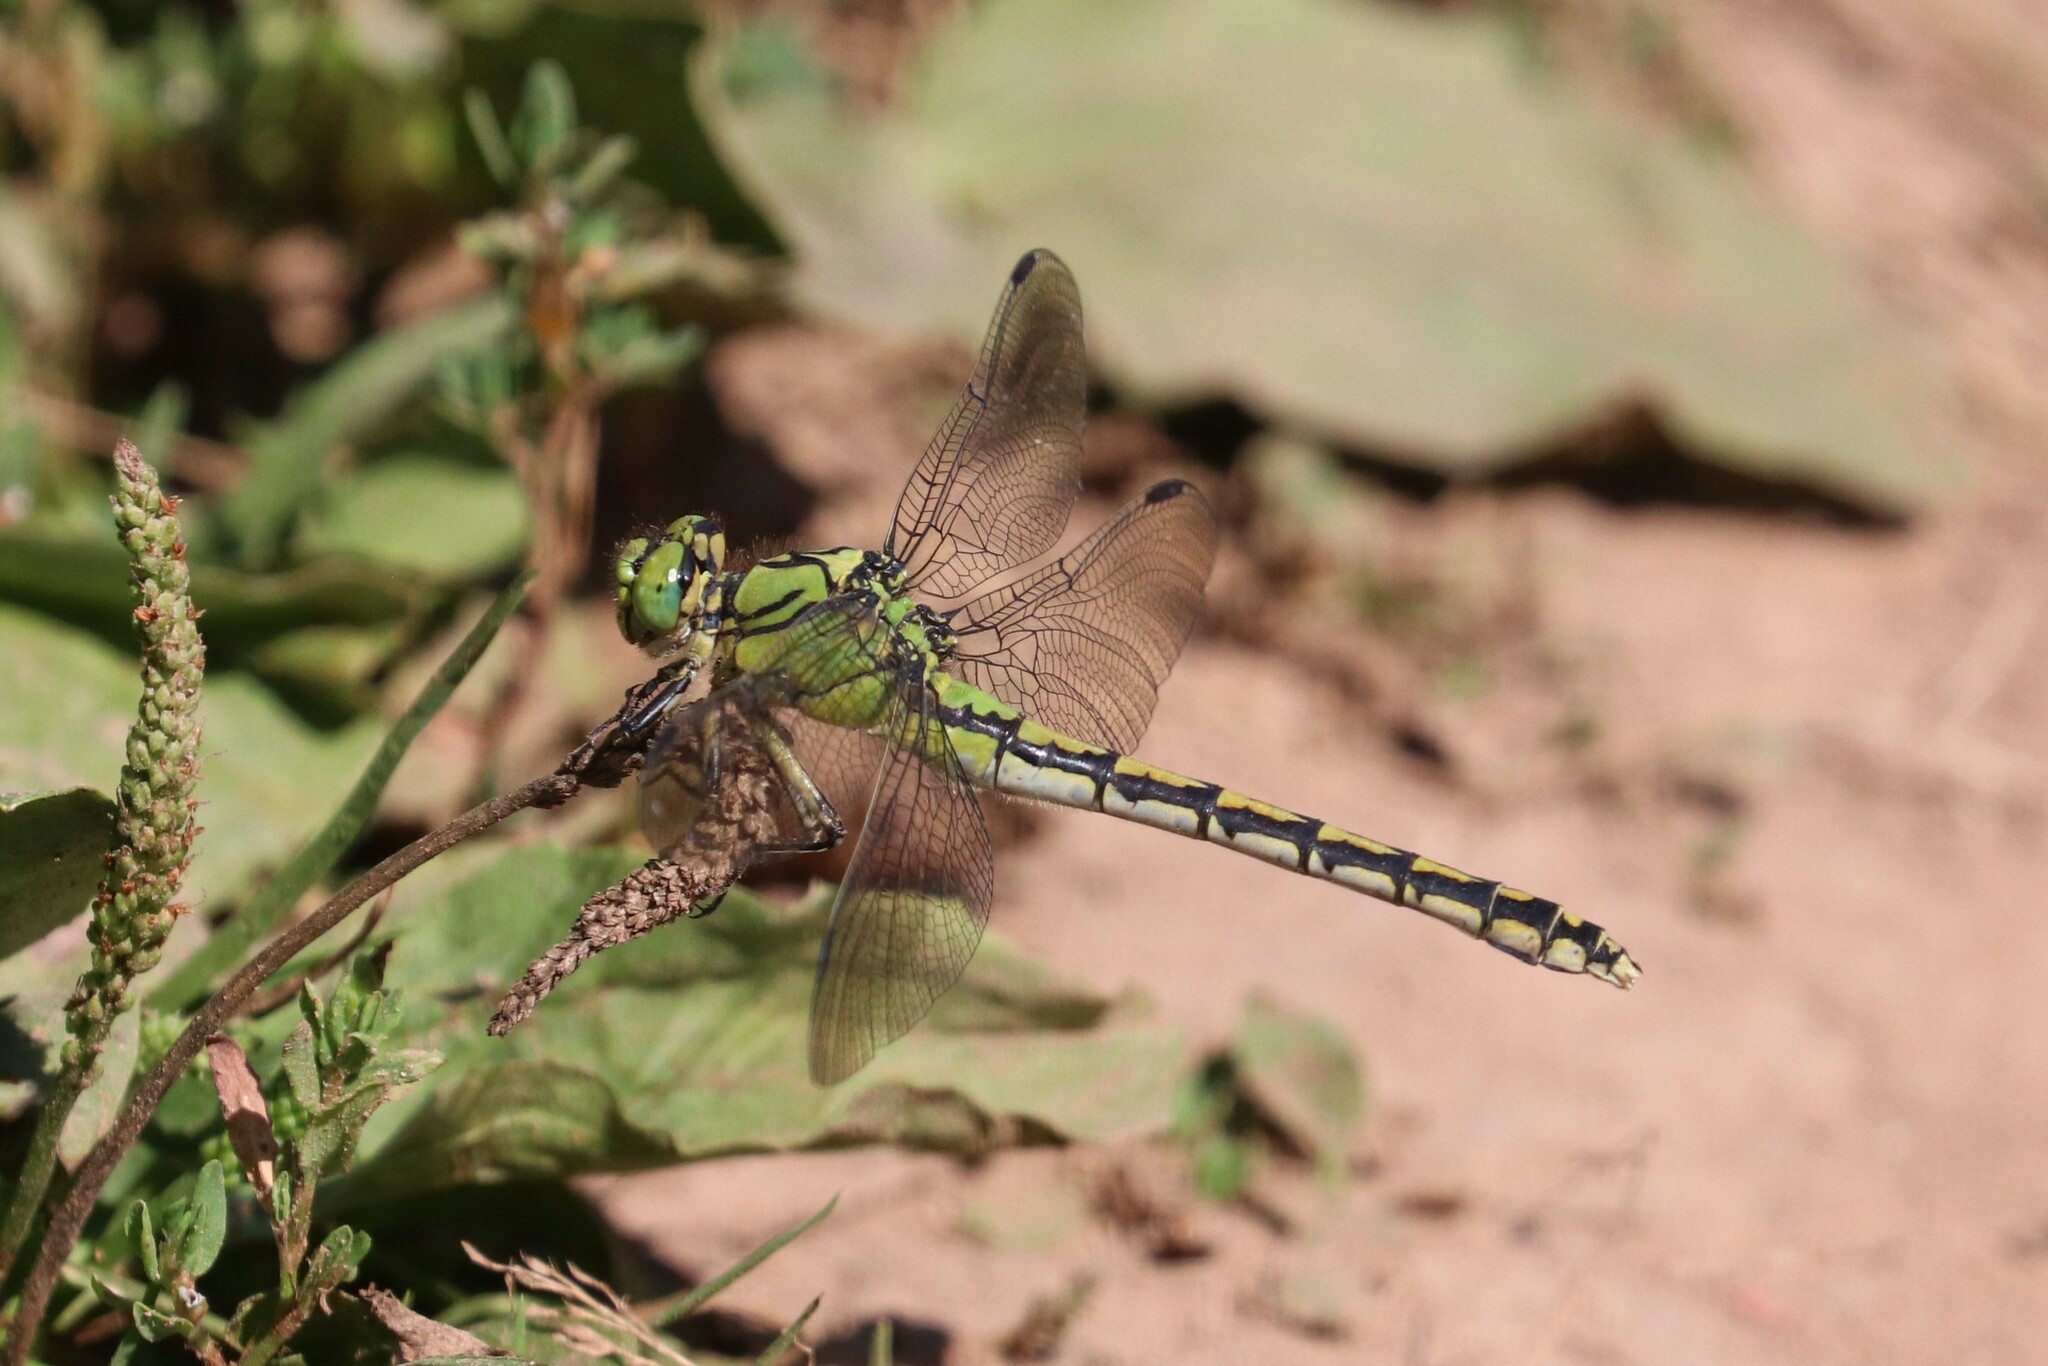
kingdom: Animalia
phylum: Arthropoda
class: Insecta
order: Odonata
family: Gomphidae
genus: Ophiogomphus
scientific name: Ophiogomphus cecilia
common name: Green snaketail
